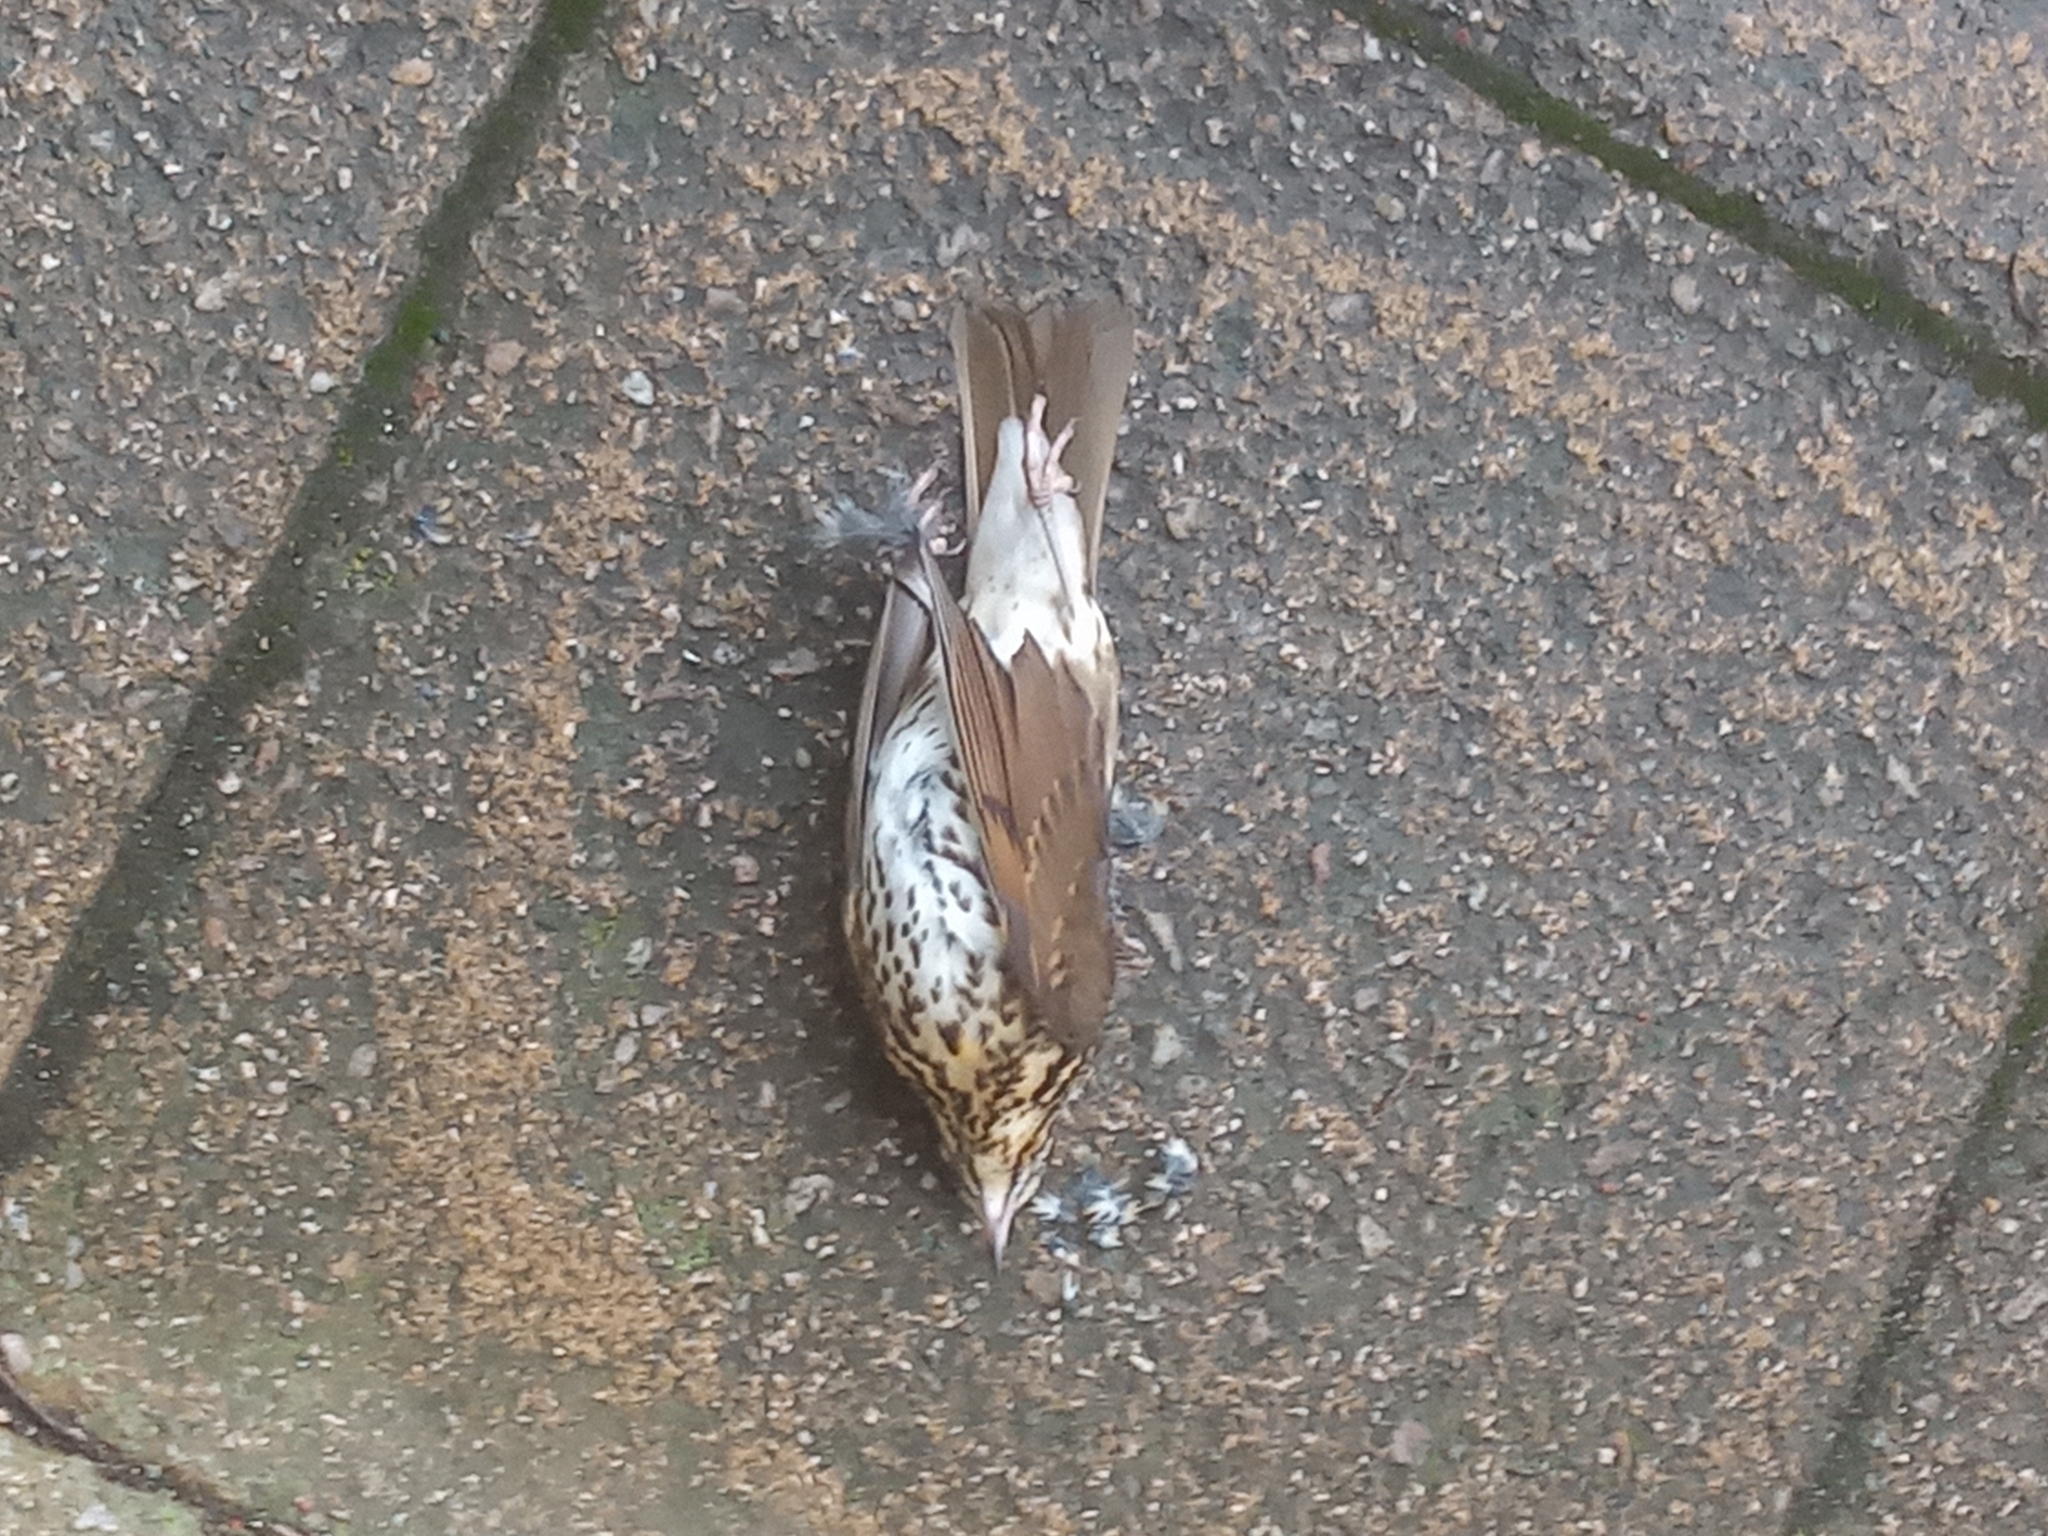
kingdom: Animalia
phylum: Chordata
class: Aves
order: Passeriformes
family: Turdidae
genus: Turdus
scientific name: Turdus philomelos
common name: Song thrush
